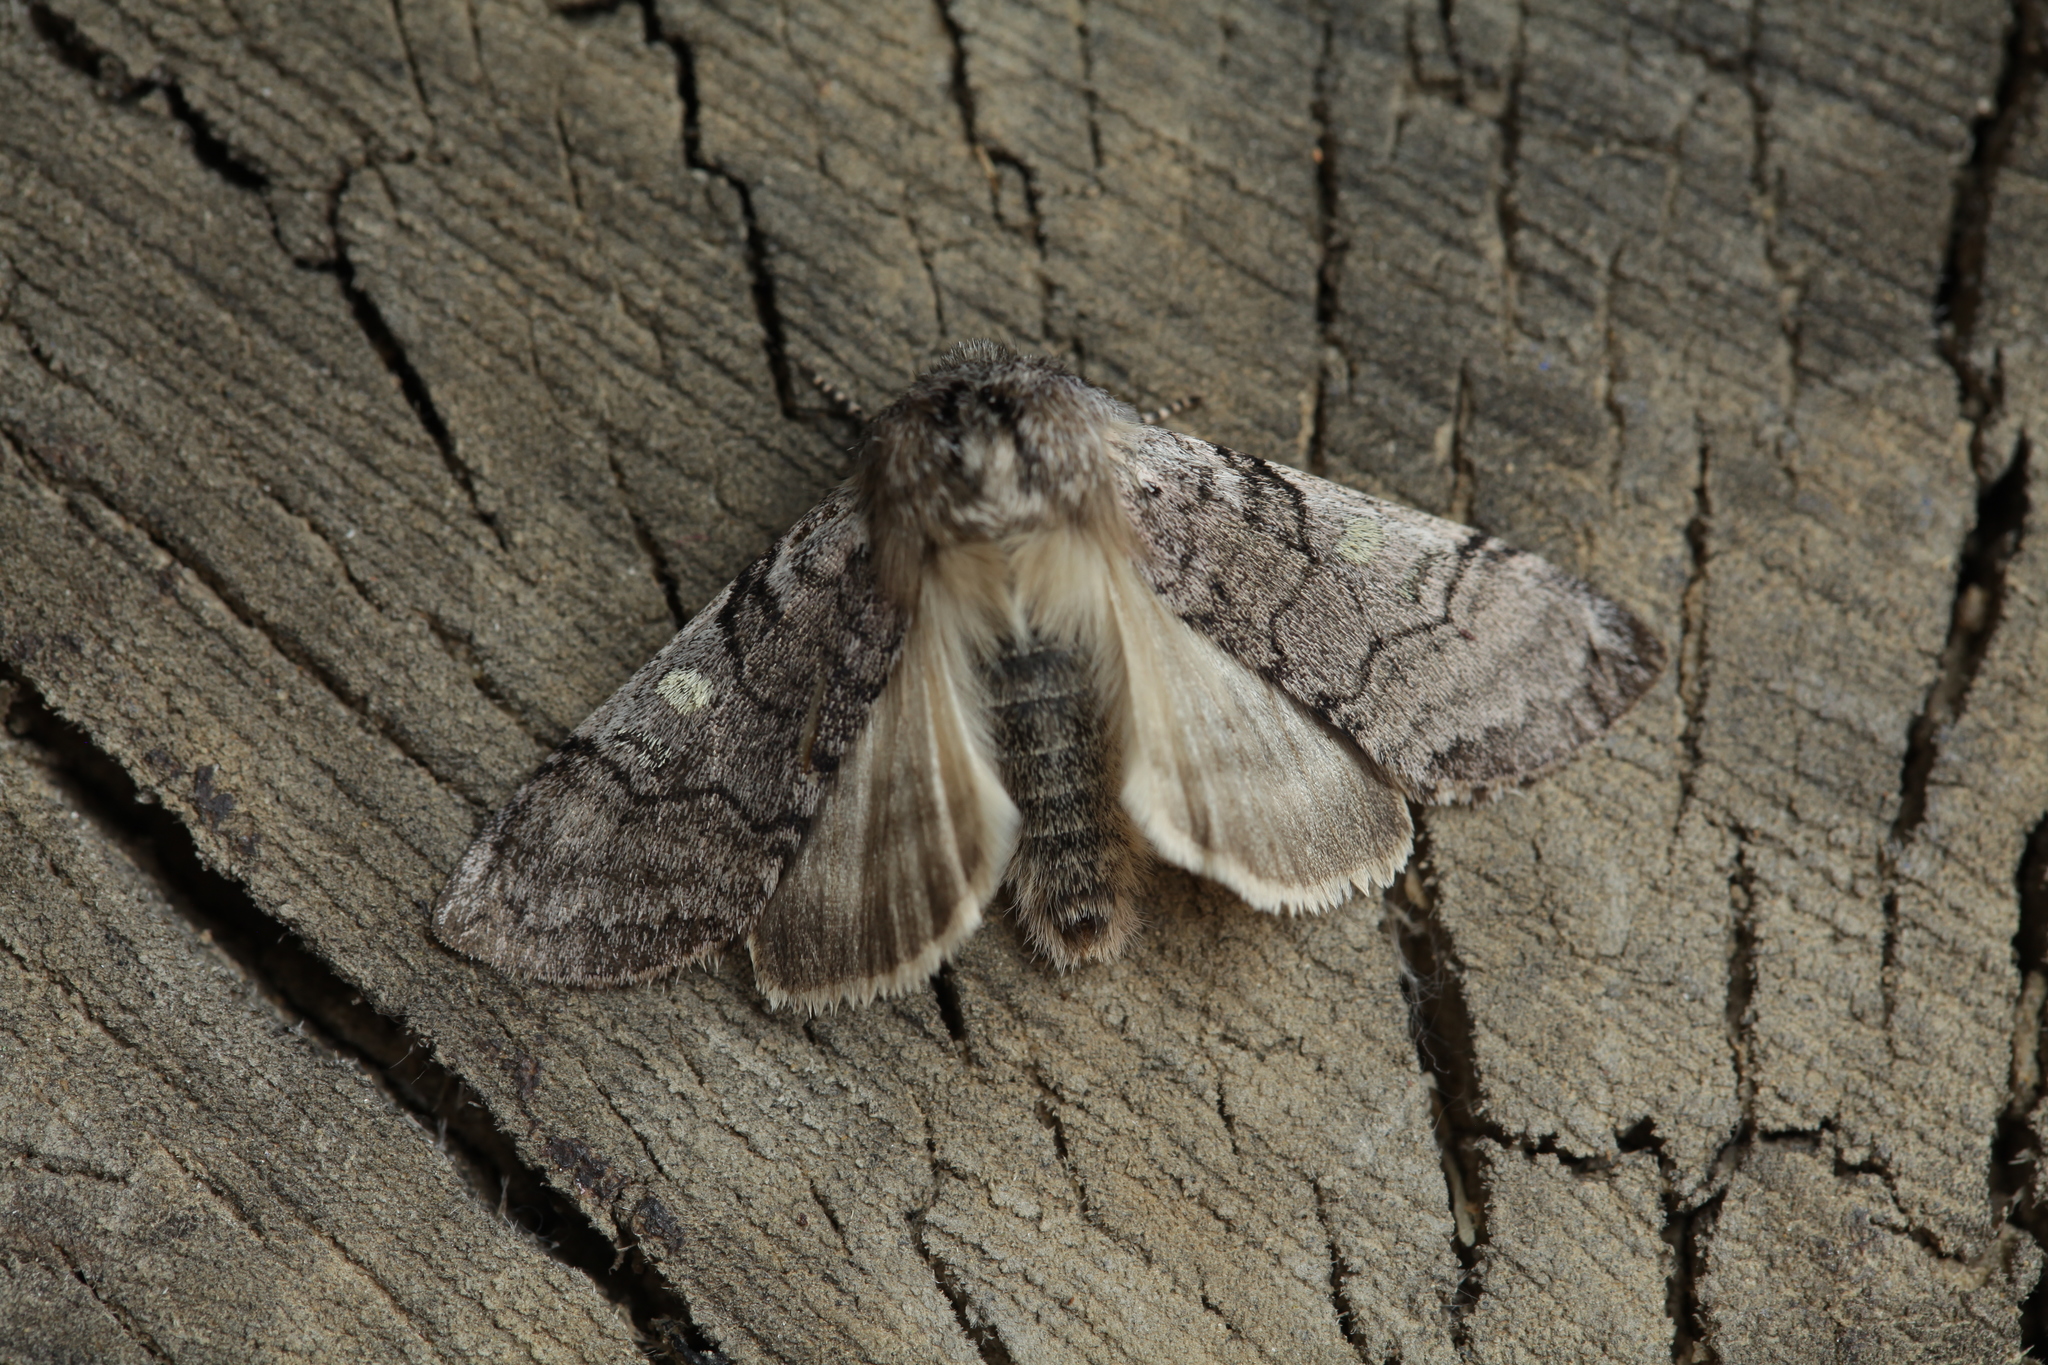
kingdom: Animalia
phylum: Arthropoda
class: Insecta
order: Lepidoptera
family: Drepanidae
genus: Achlya
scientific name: Achlya flavicornis
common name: Yellow horned
